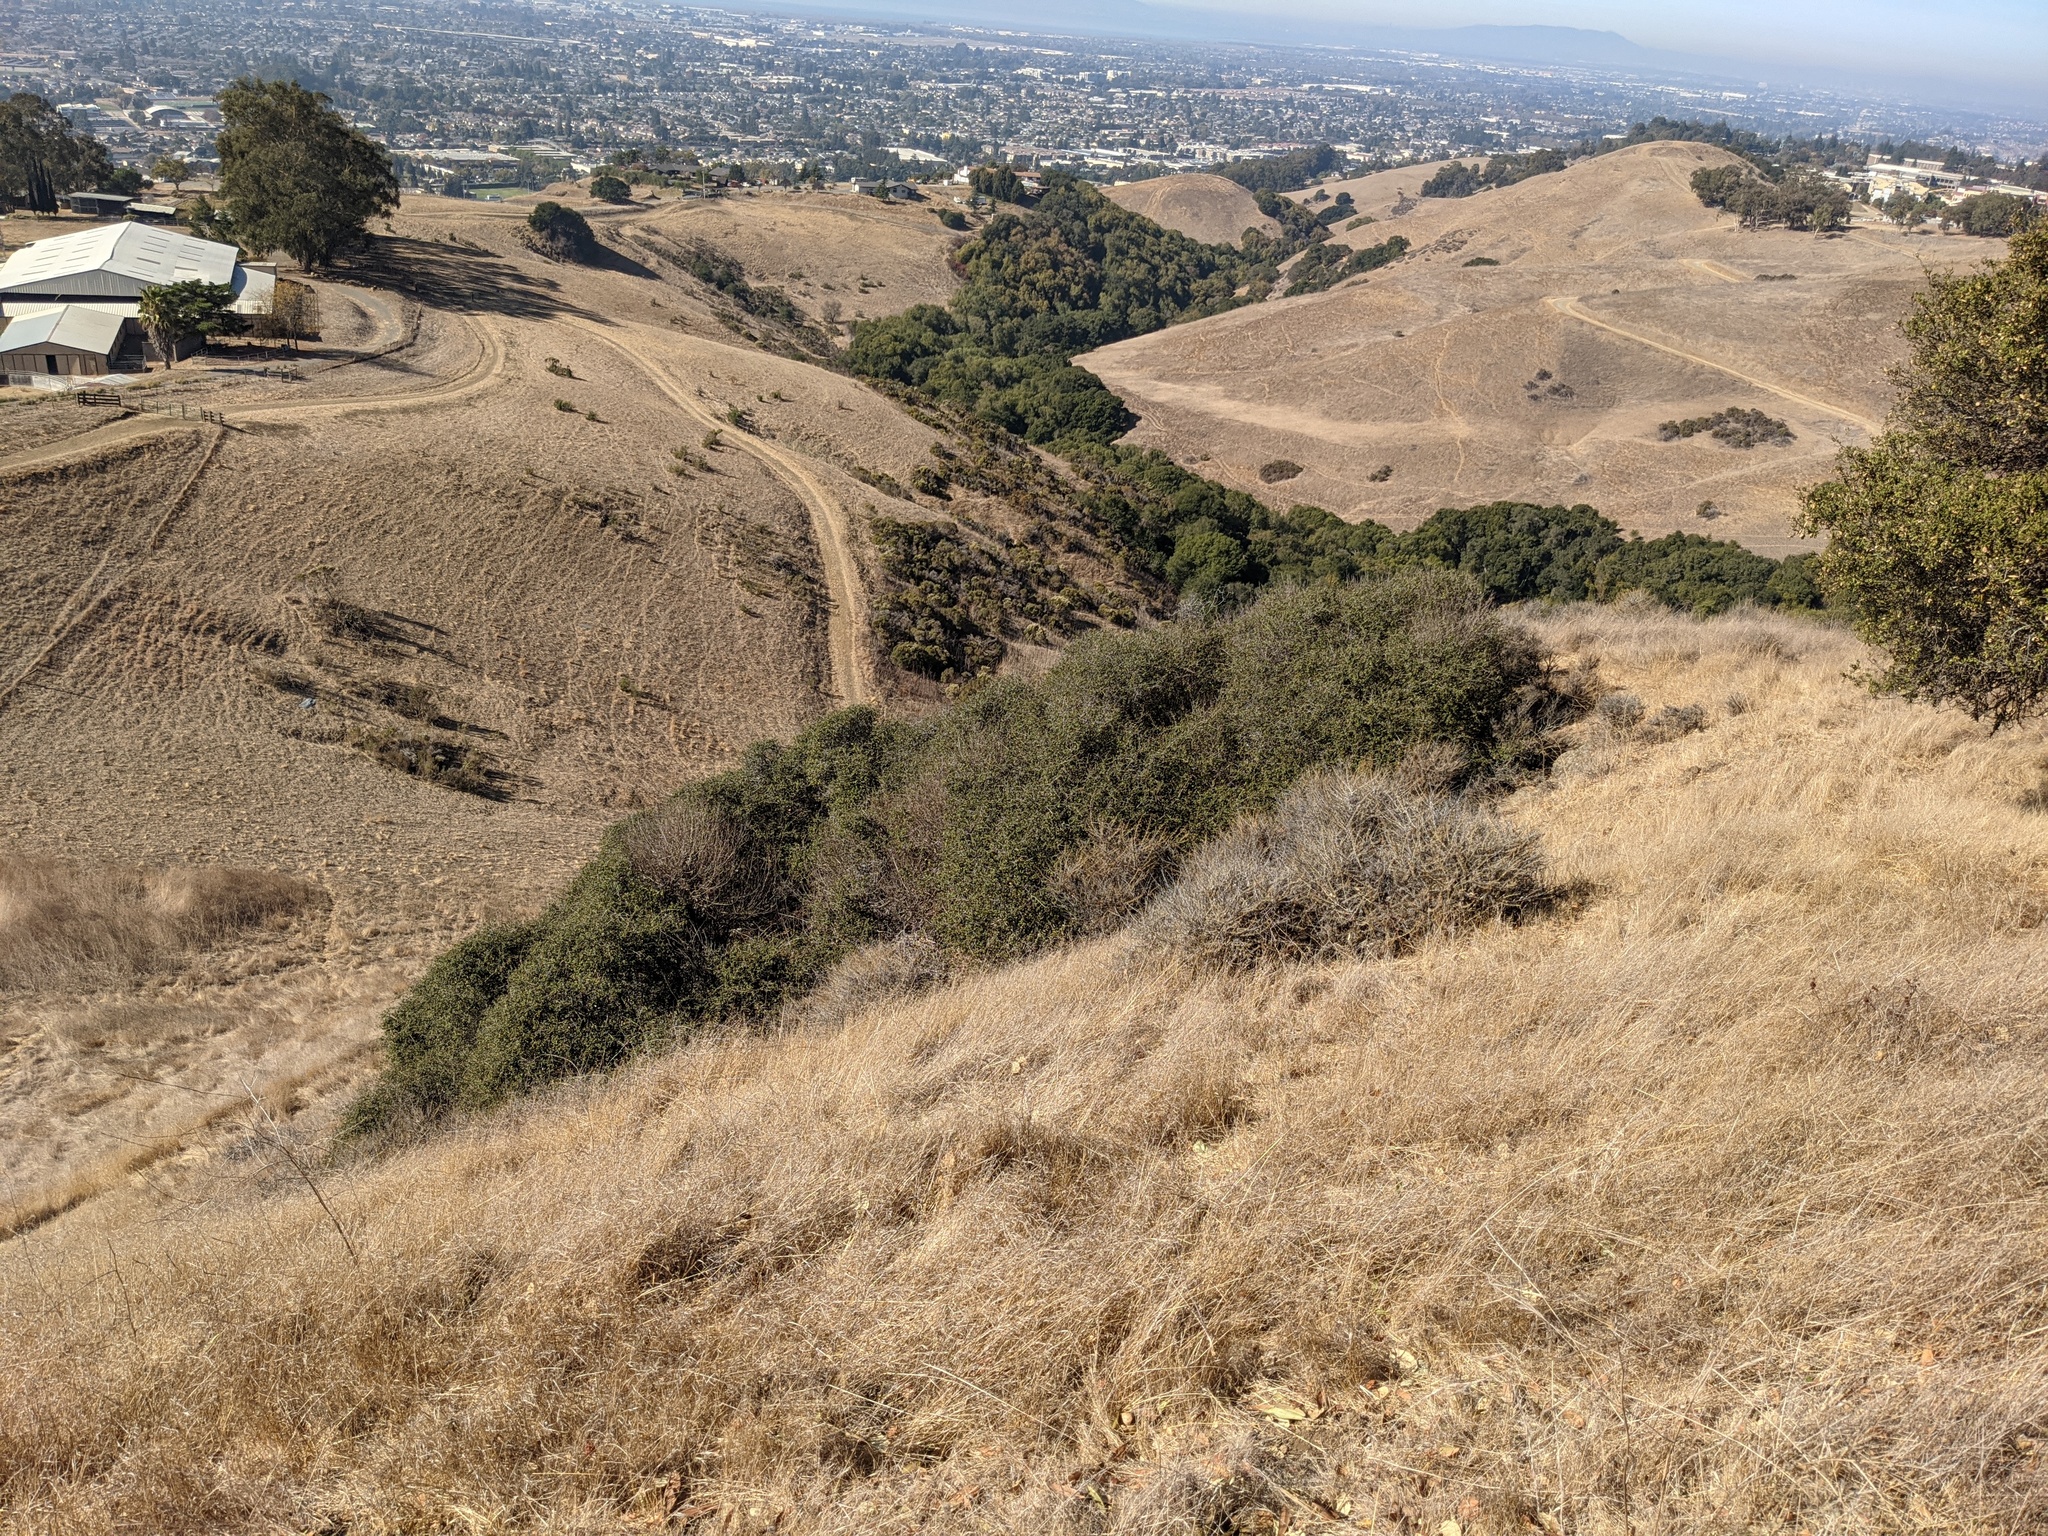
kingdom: Plantae
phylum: Tracheophyta
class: Magnoliopsida
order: Fagales
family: Fagaceae
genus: Quercus
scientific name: Quercus palmeri
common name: Dunn oak
